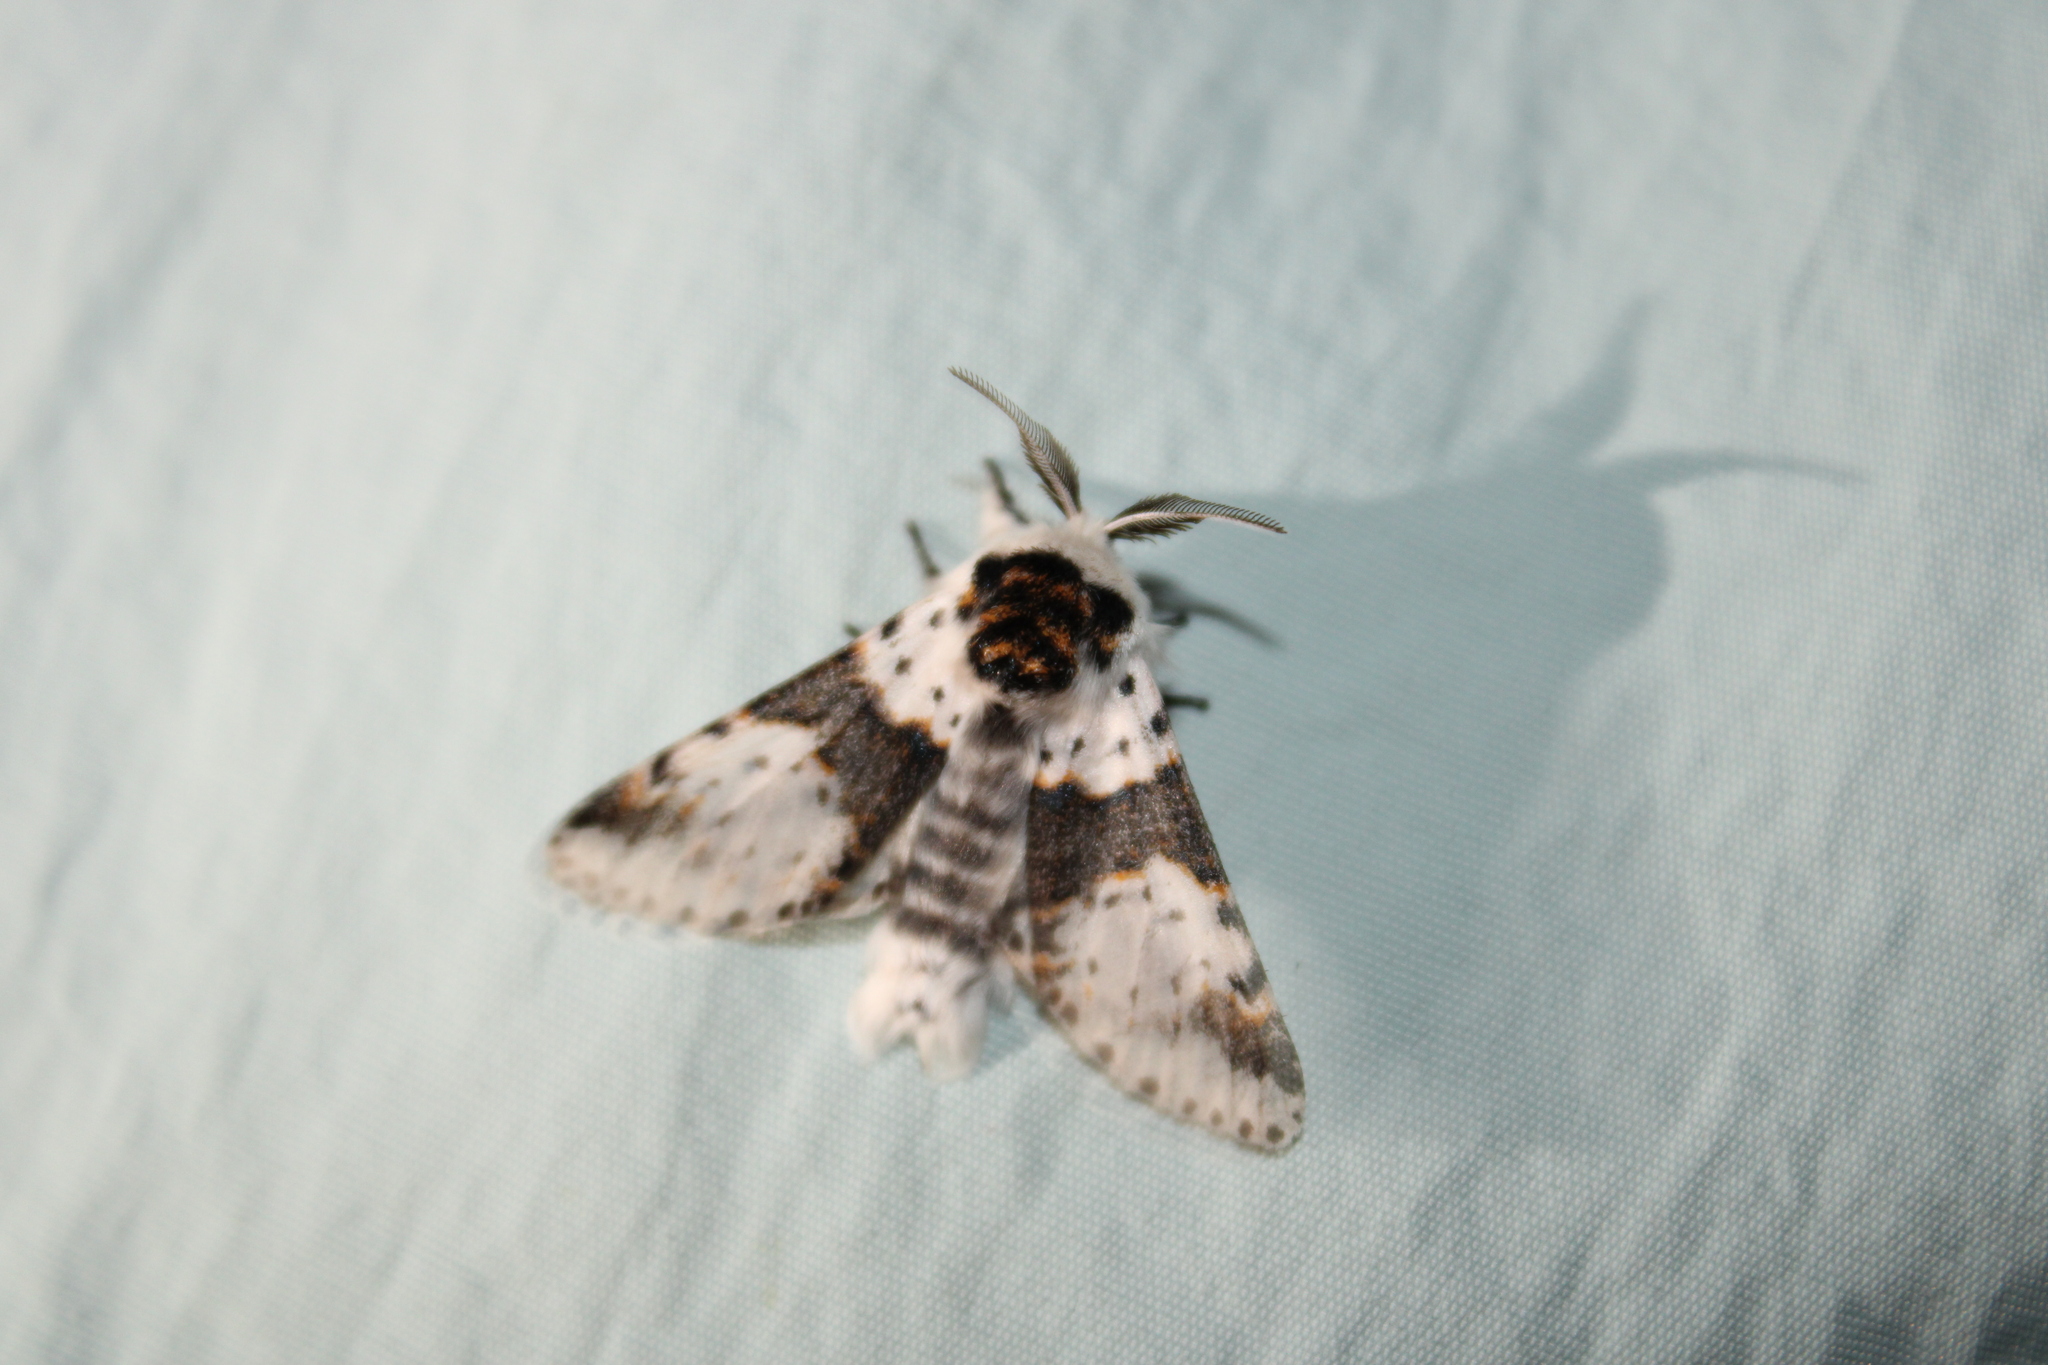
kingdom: Animalia
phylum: Arthropoda
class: Insecta
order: Lepidoptera
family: Notodontidae
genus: Furcula
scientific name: Furcula borealis
